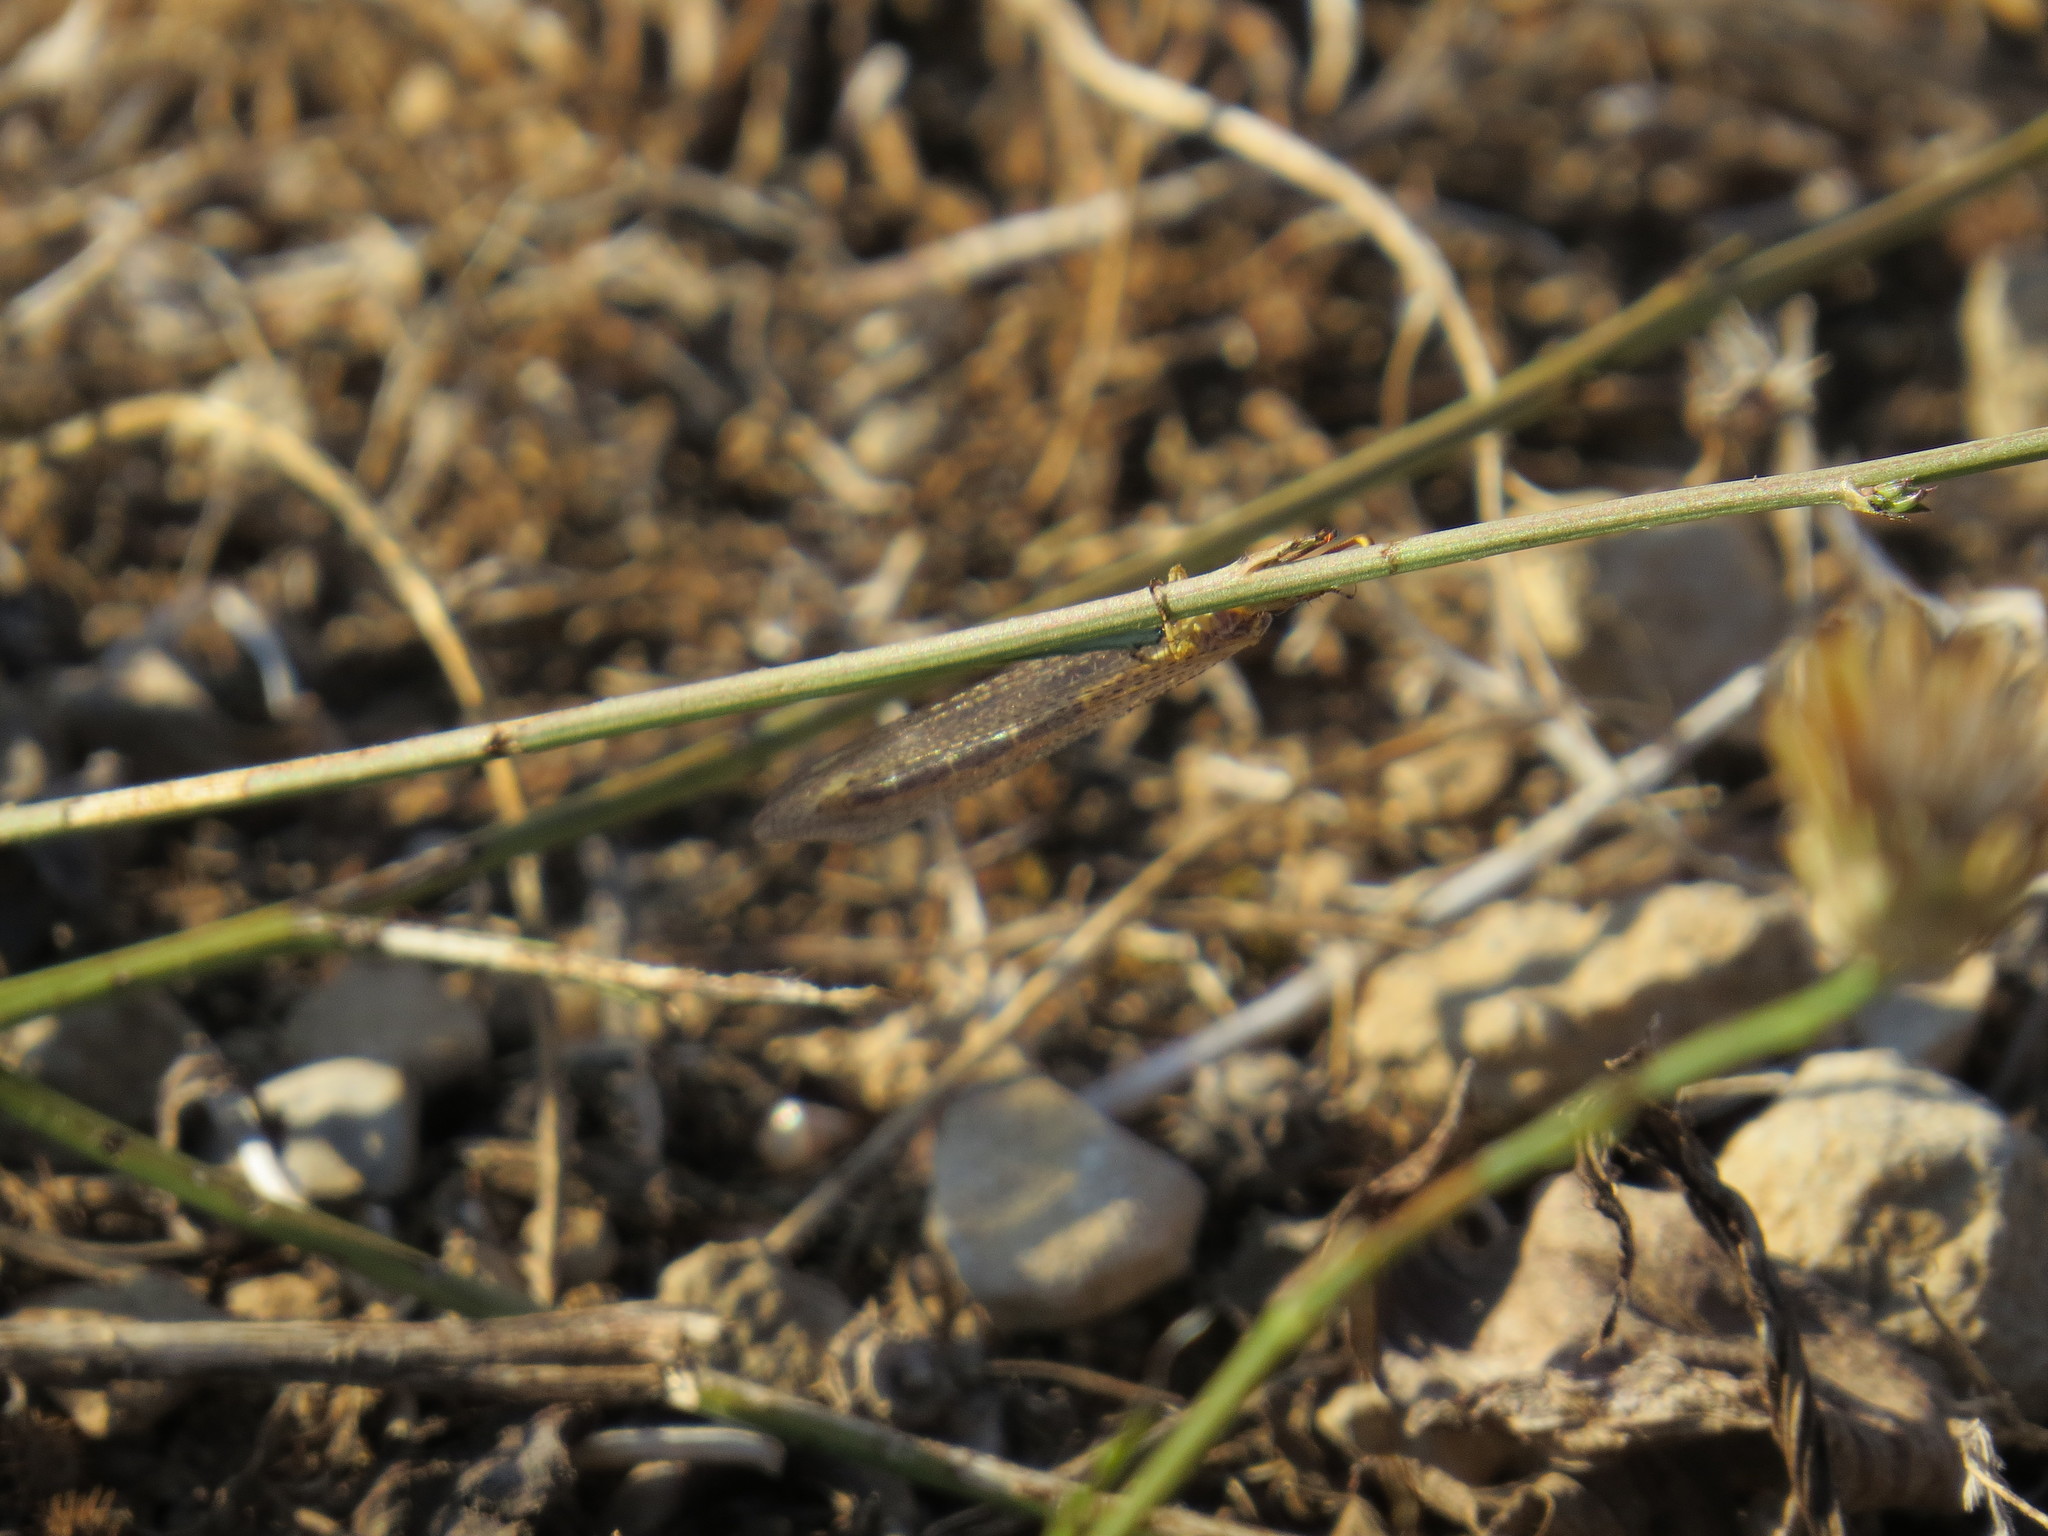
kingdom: Animalia
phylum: Arthropoda
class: Insecta
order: Neuroptera
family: Myrmeleontidae
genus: Macronemurus
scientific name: Macronemurus appendiculatus
